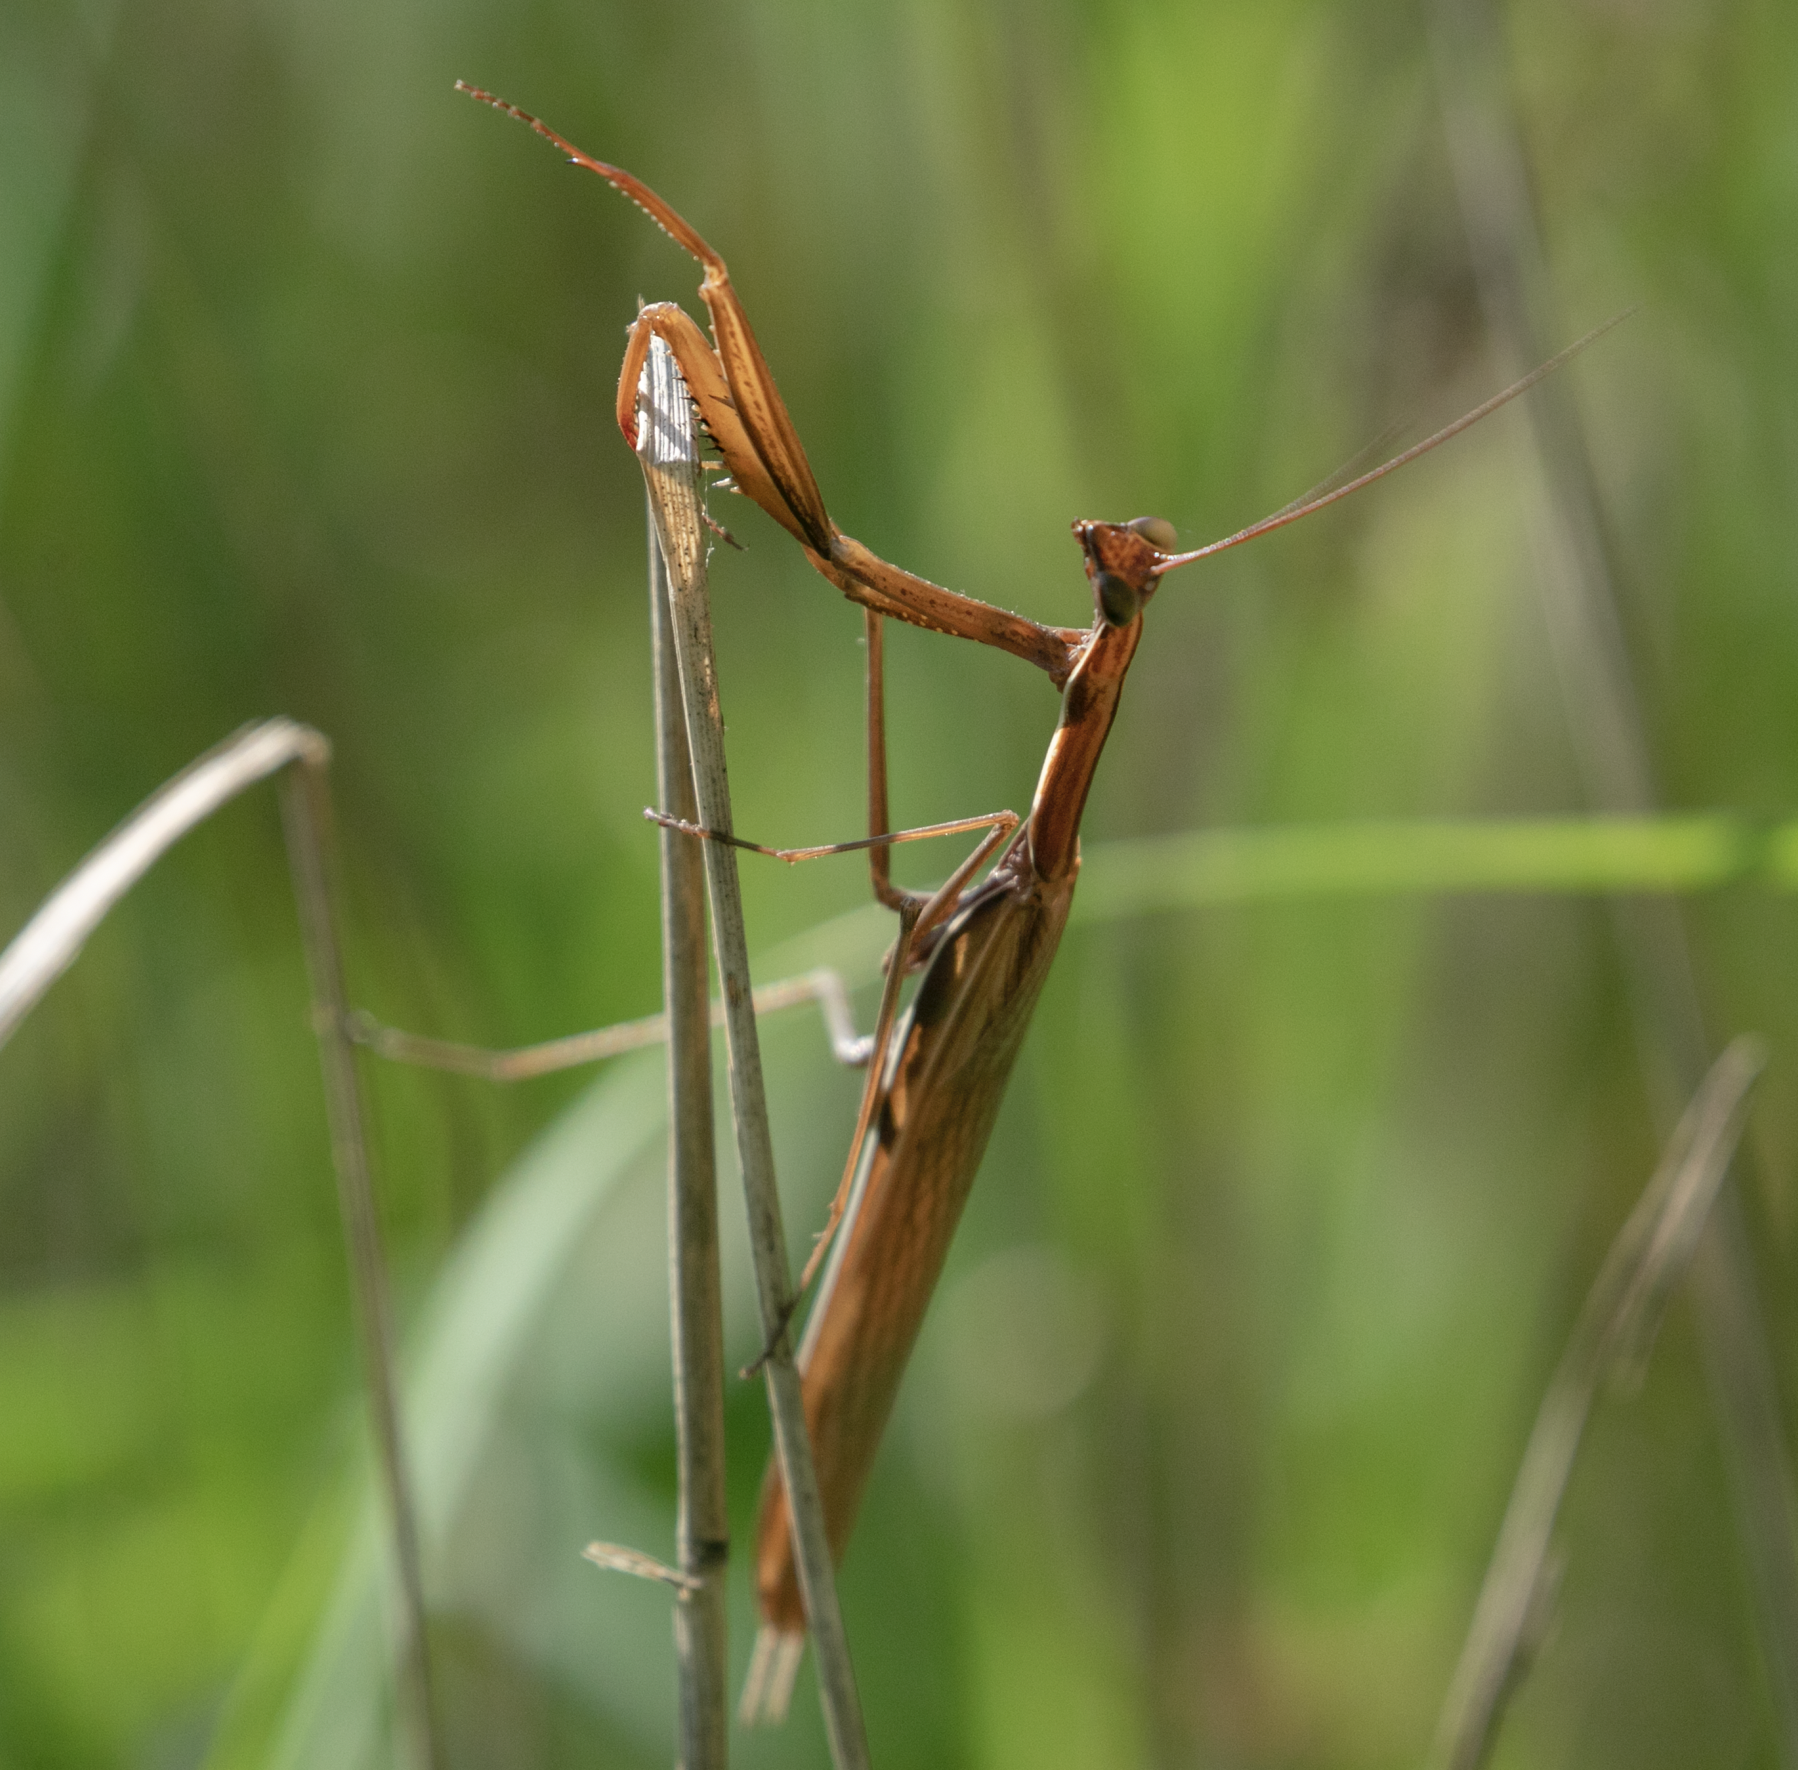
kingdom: Animalia
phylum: Arthropoda
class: Insecta
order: Mantodea
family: Mantidae
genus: Mantis
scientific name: Mantis religiosa
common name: Praying mantis
